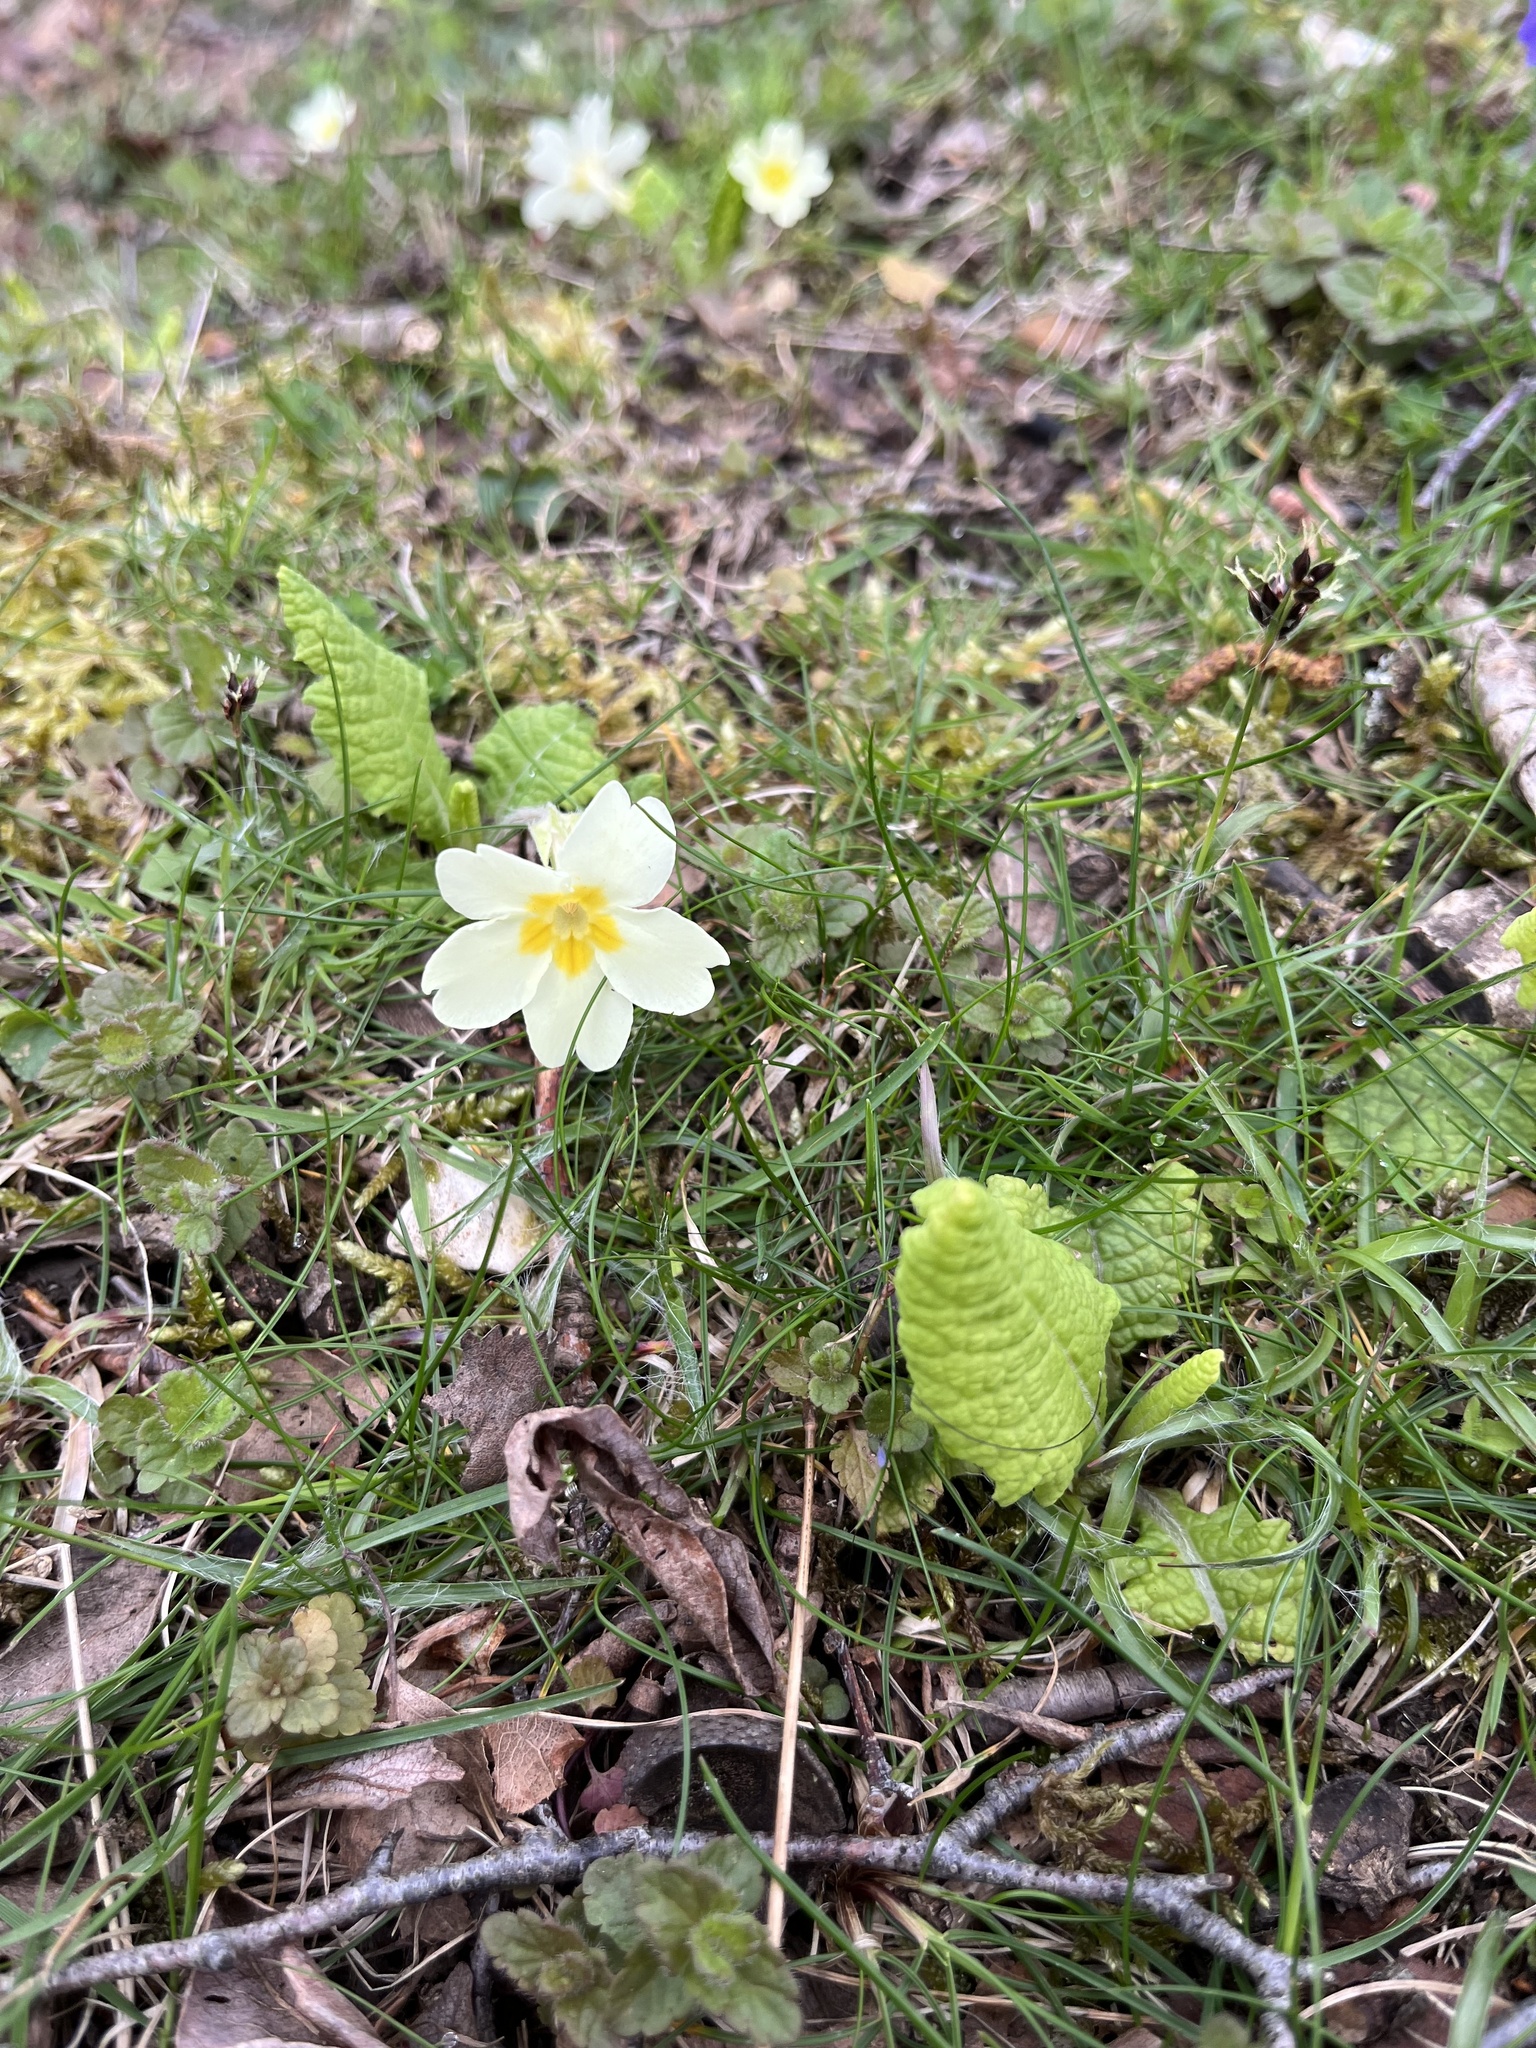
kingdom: Plantae
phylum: Tracheophyta
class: Magnoliopsida
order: Ericales
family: Primulaceae
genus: Primula
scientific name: Primula vulgaris
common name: Primrose
